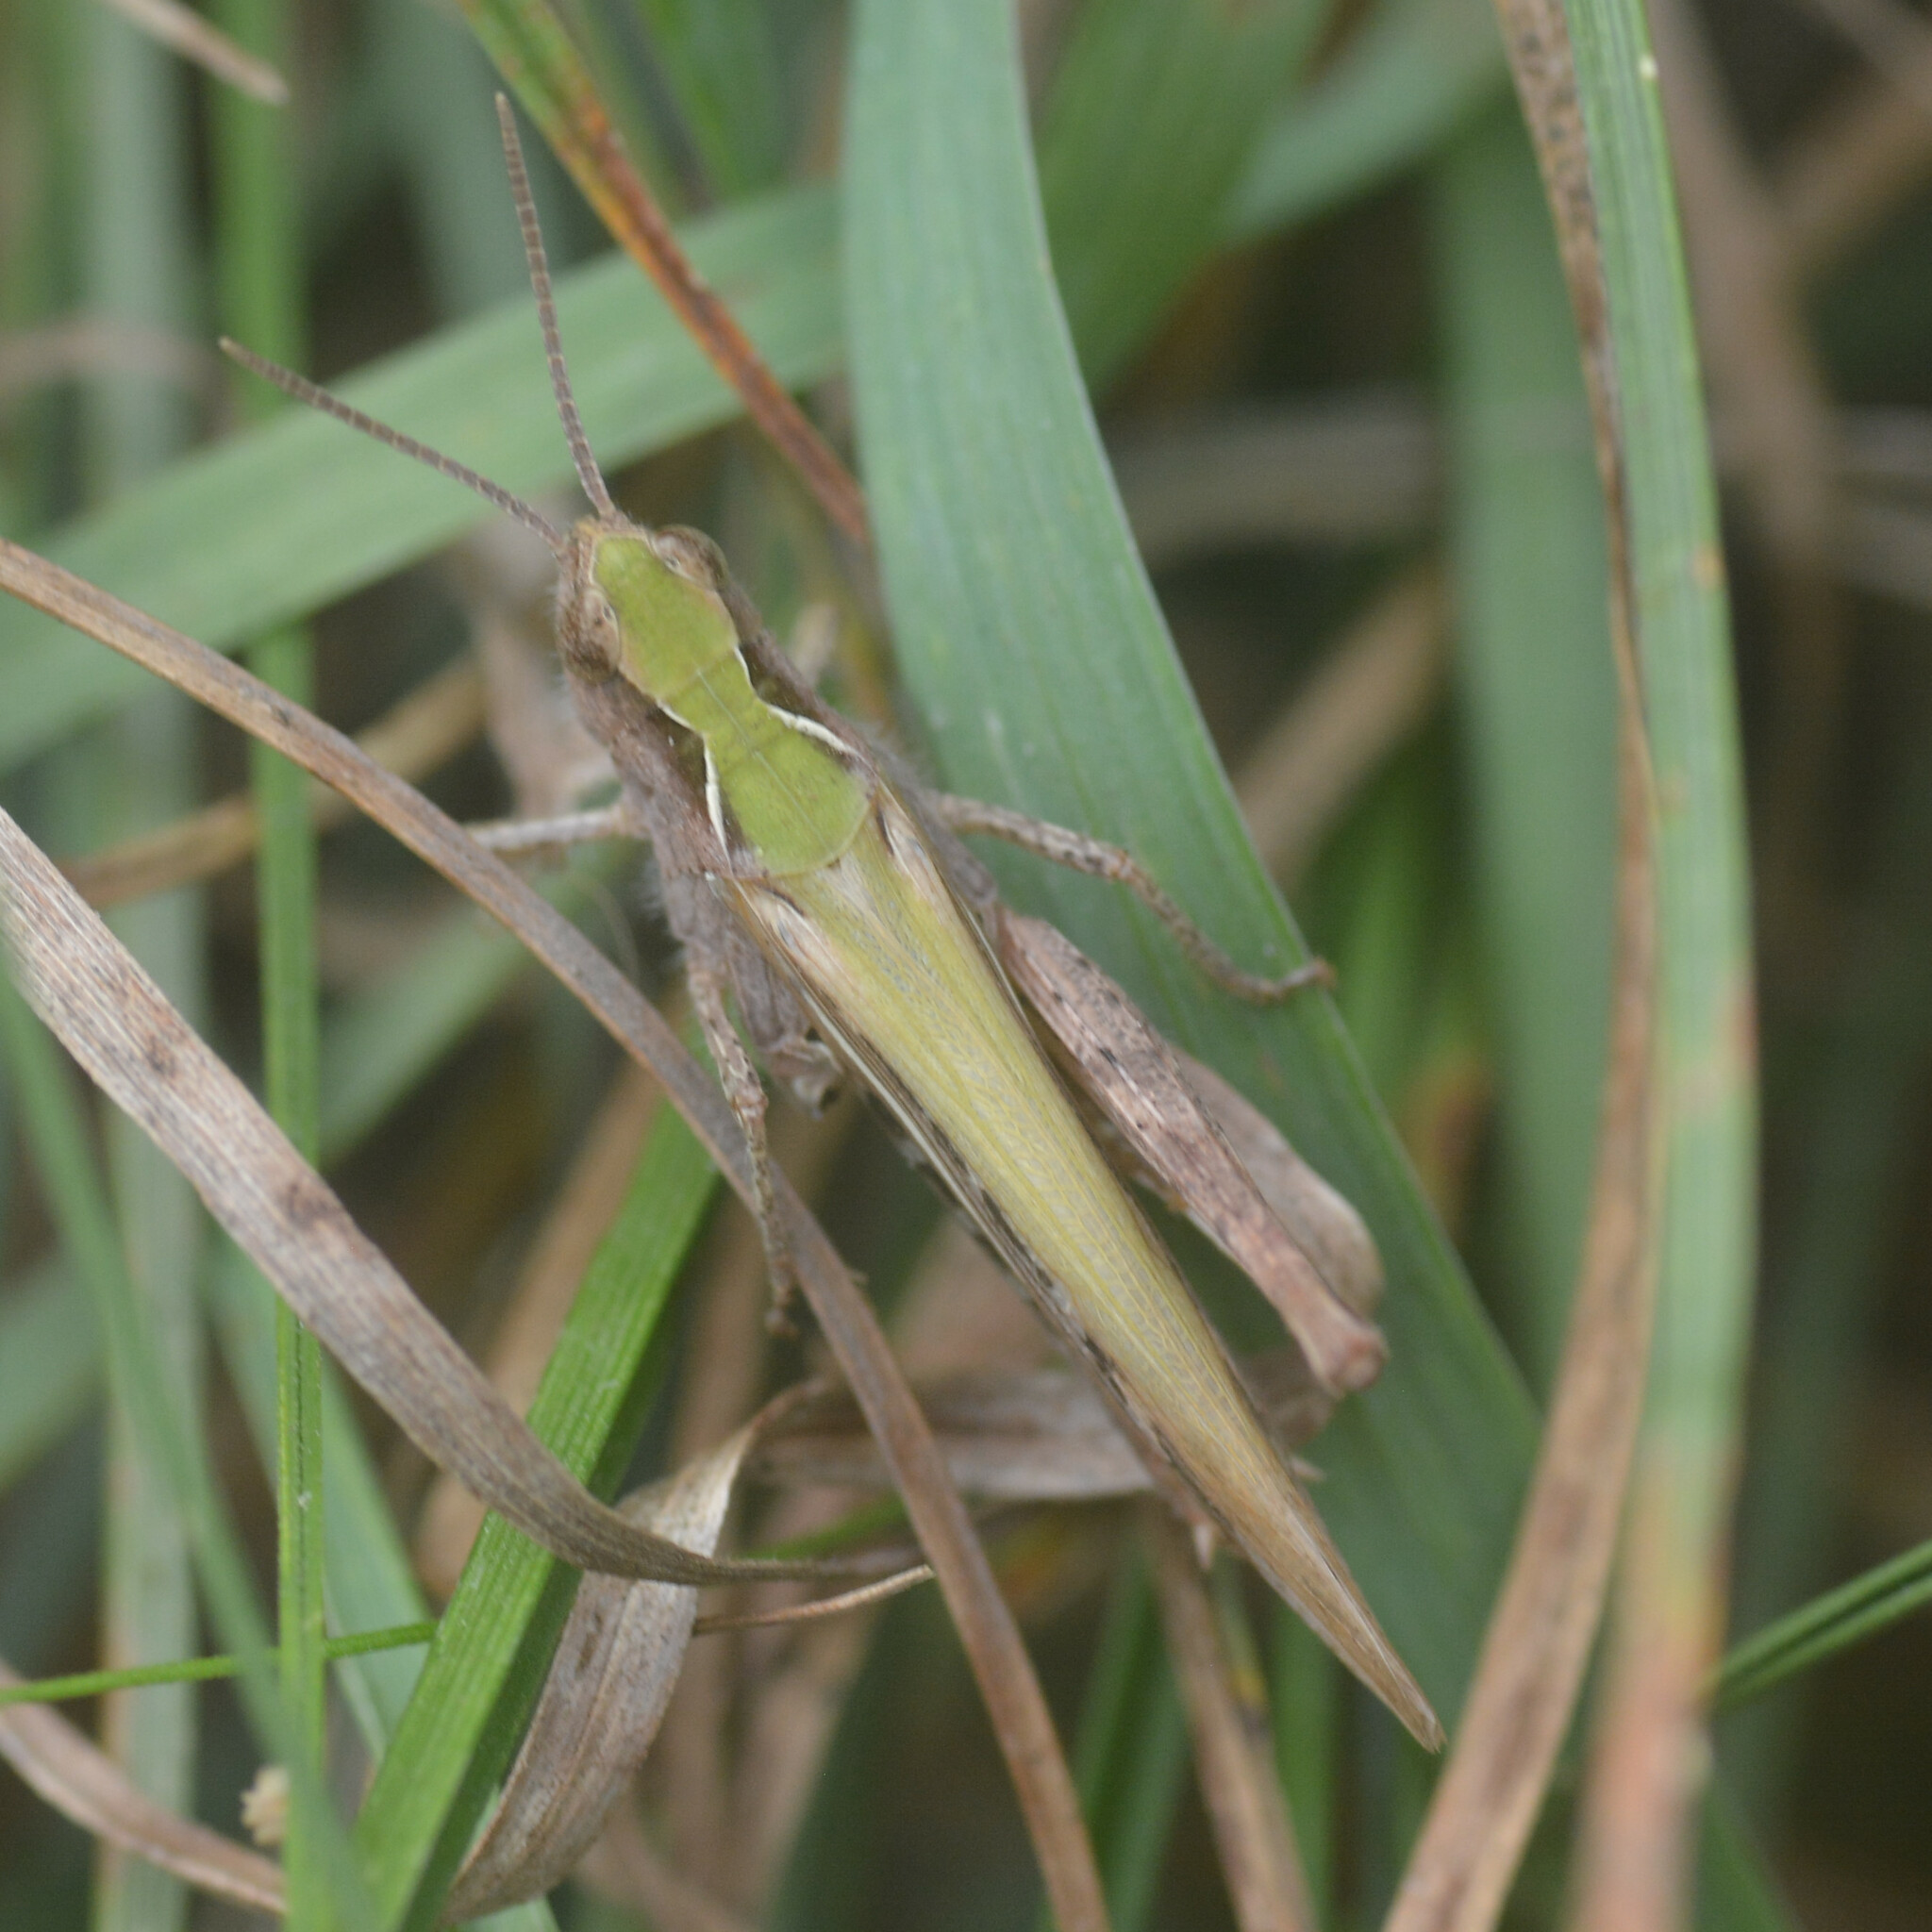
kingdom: Animalia
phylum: Arthropoda
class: Insecta
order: Orthoptera
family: Acrididae
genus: Chorthippus
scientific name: Chorthippus brunneus
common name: Field grasshopper
